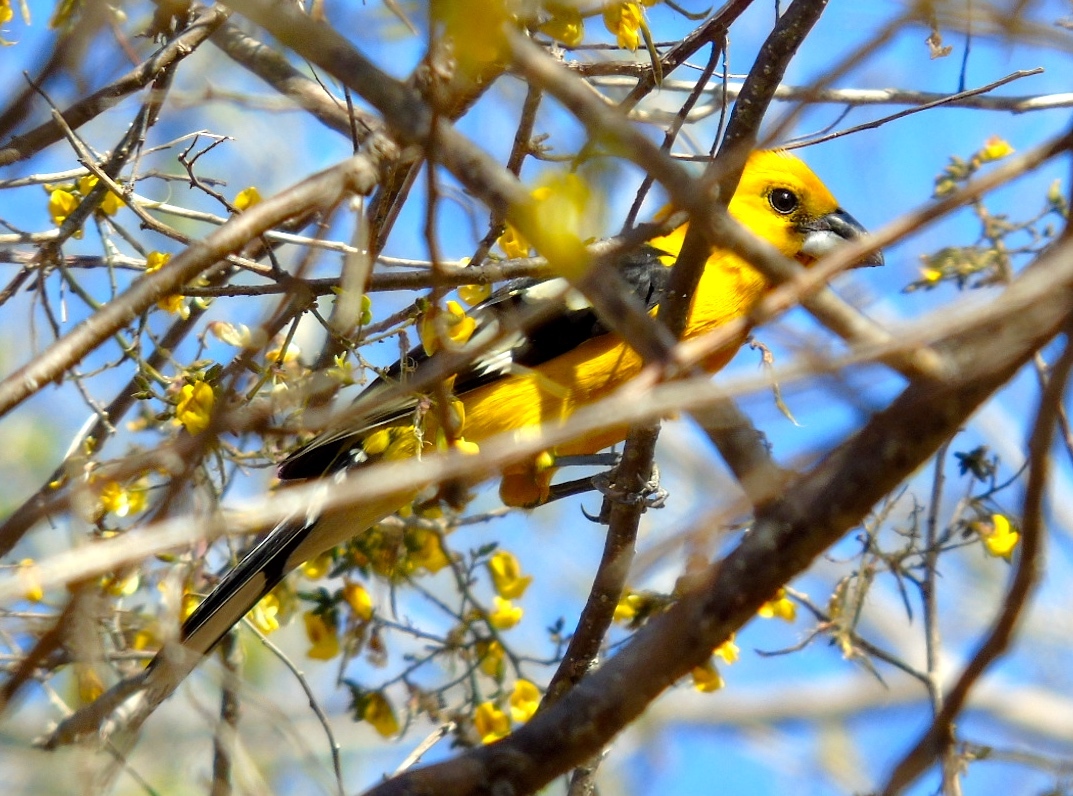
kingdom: Animalia
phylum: Chordata
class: Aves
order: Passeriformes
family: Cardinalidae
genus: Pheucticus
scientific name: Pheucticus chrysopeplus
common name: Yellow grosbeak
